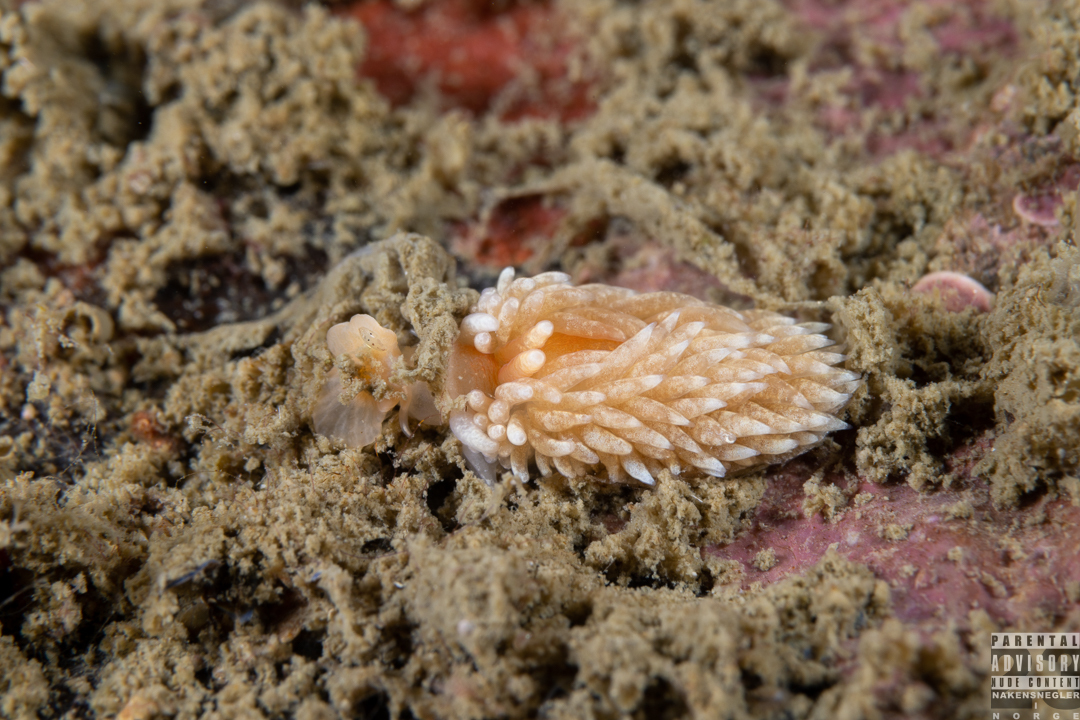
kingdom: Animalia
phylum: Mollusca
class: Gastropoda
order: Nudibranchia
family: Aeolidiidae
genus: Aeolidiella
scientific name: Aeolidiella glauca
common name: Orange-brown aeolid
